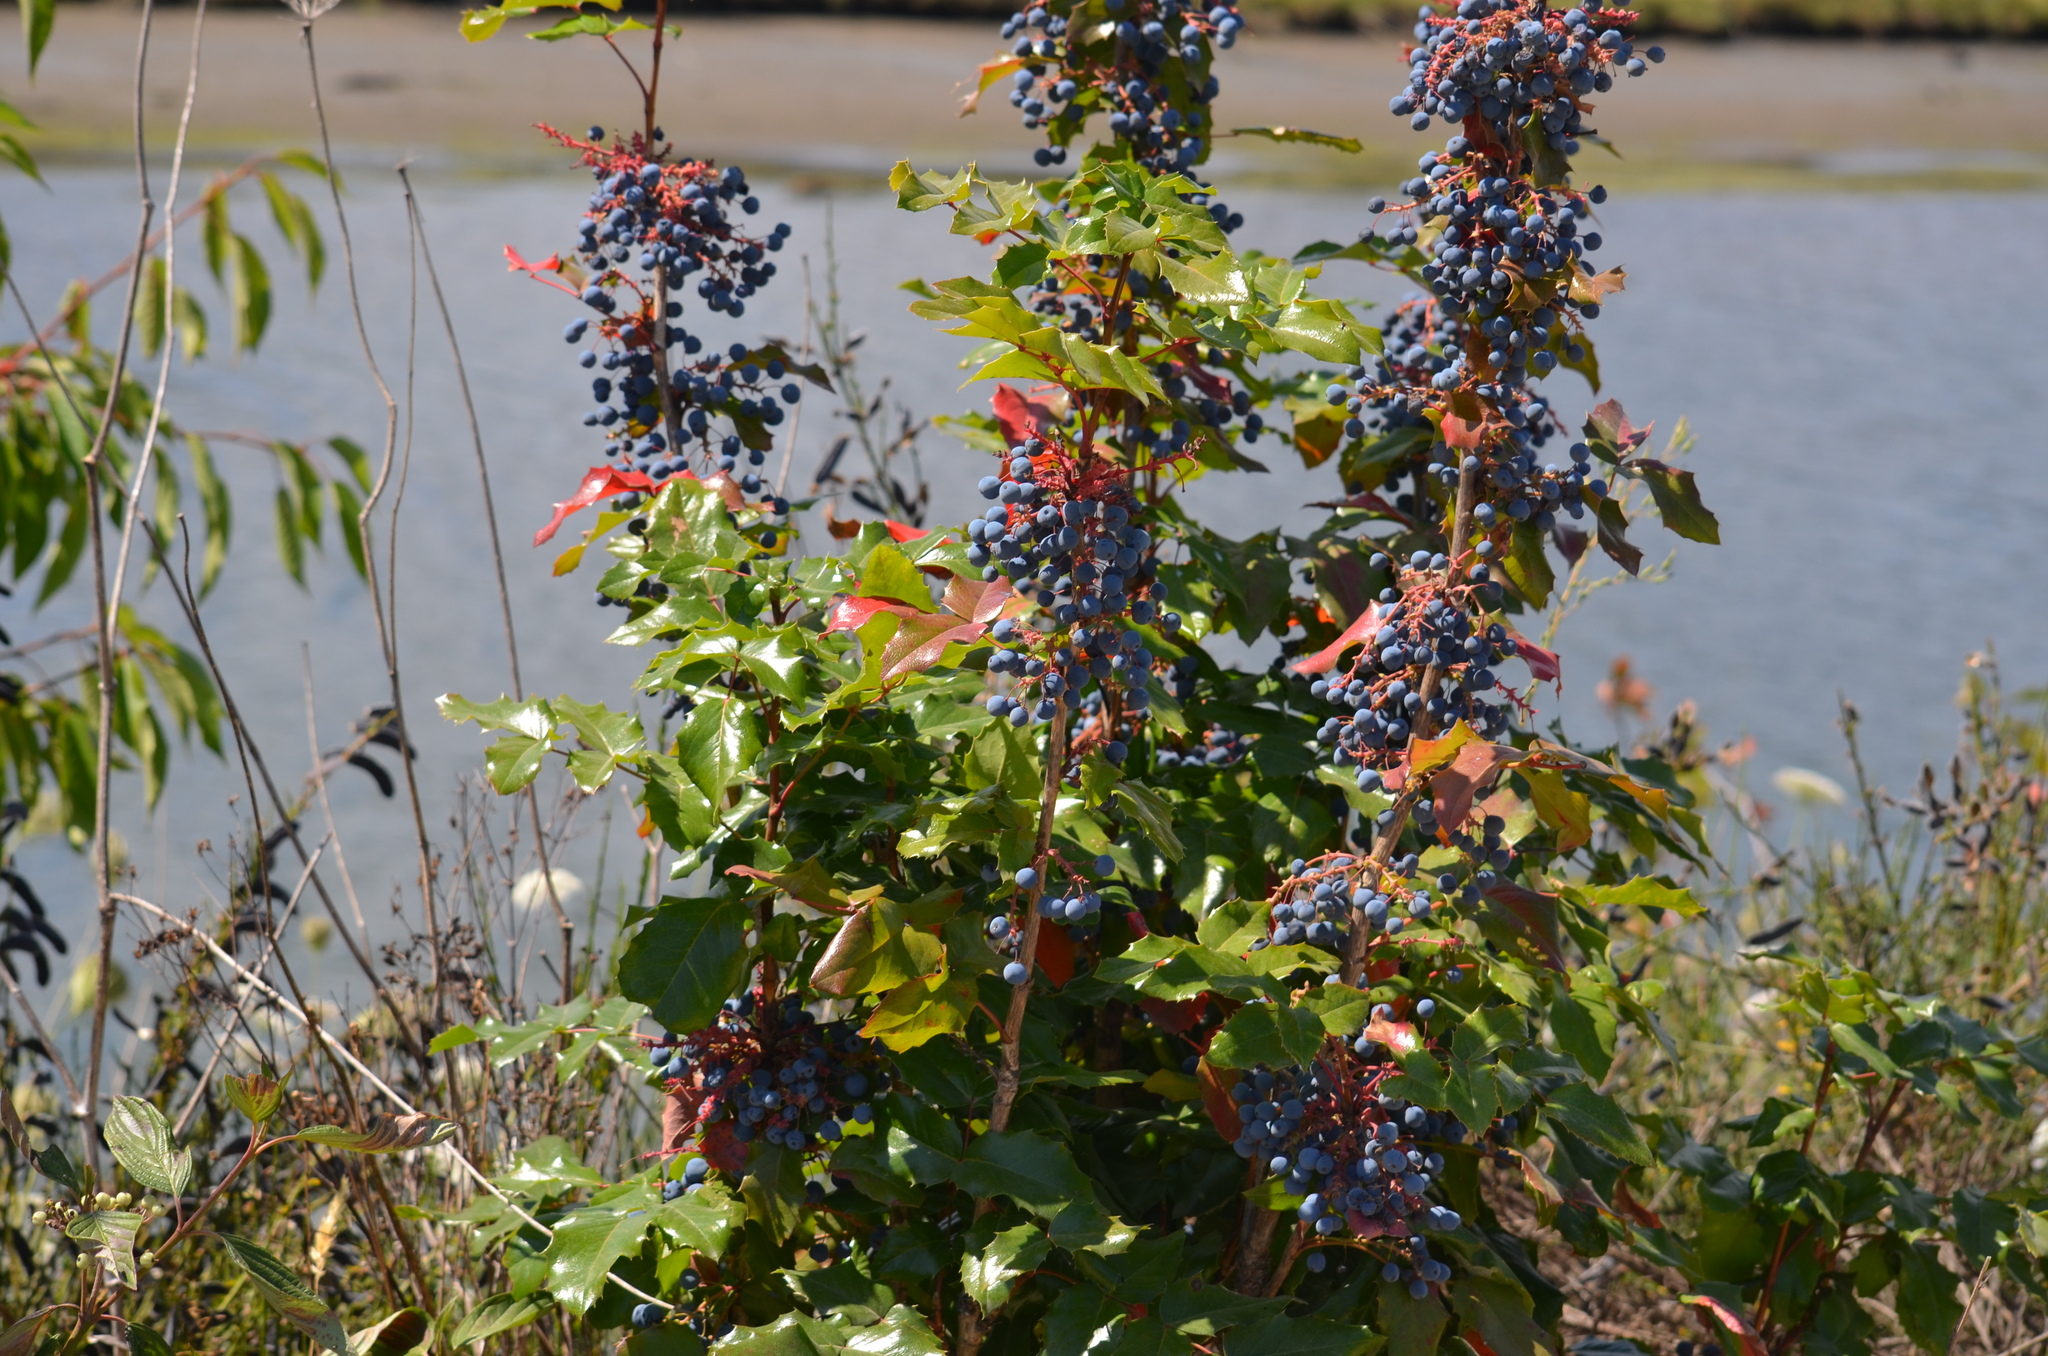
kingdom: Plantae
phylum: Tracheophyta
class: Magnoliopsida
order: Ranunculales
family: Berberidaceae
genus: Mahonia
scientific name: Mahonia aquifolium
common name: Oregon-grape
